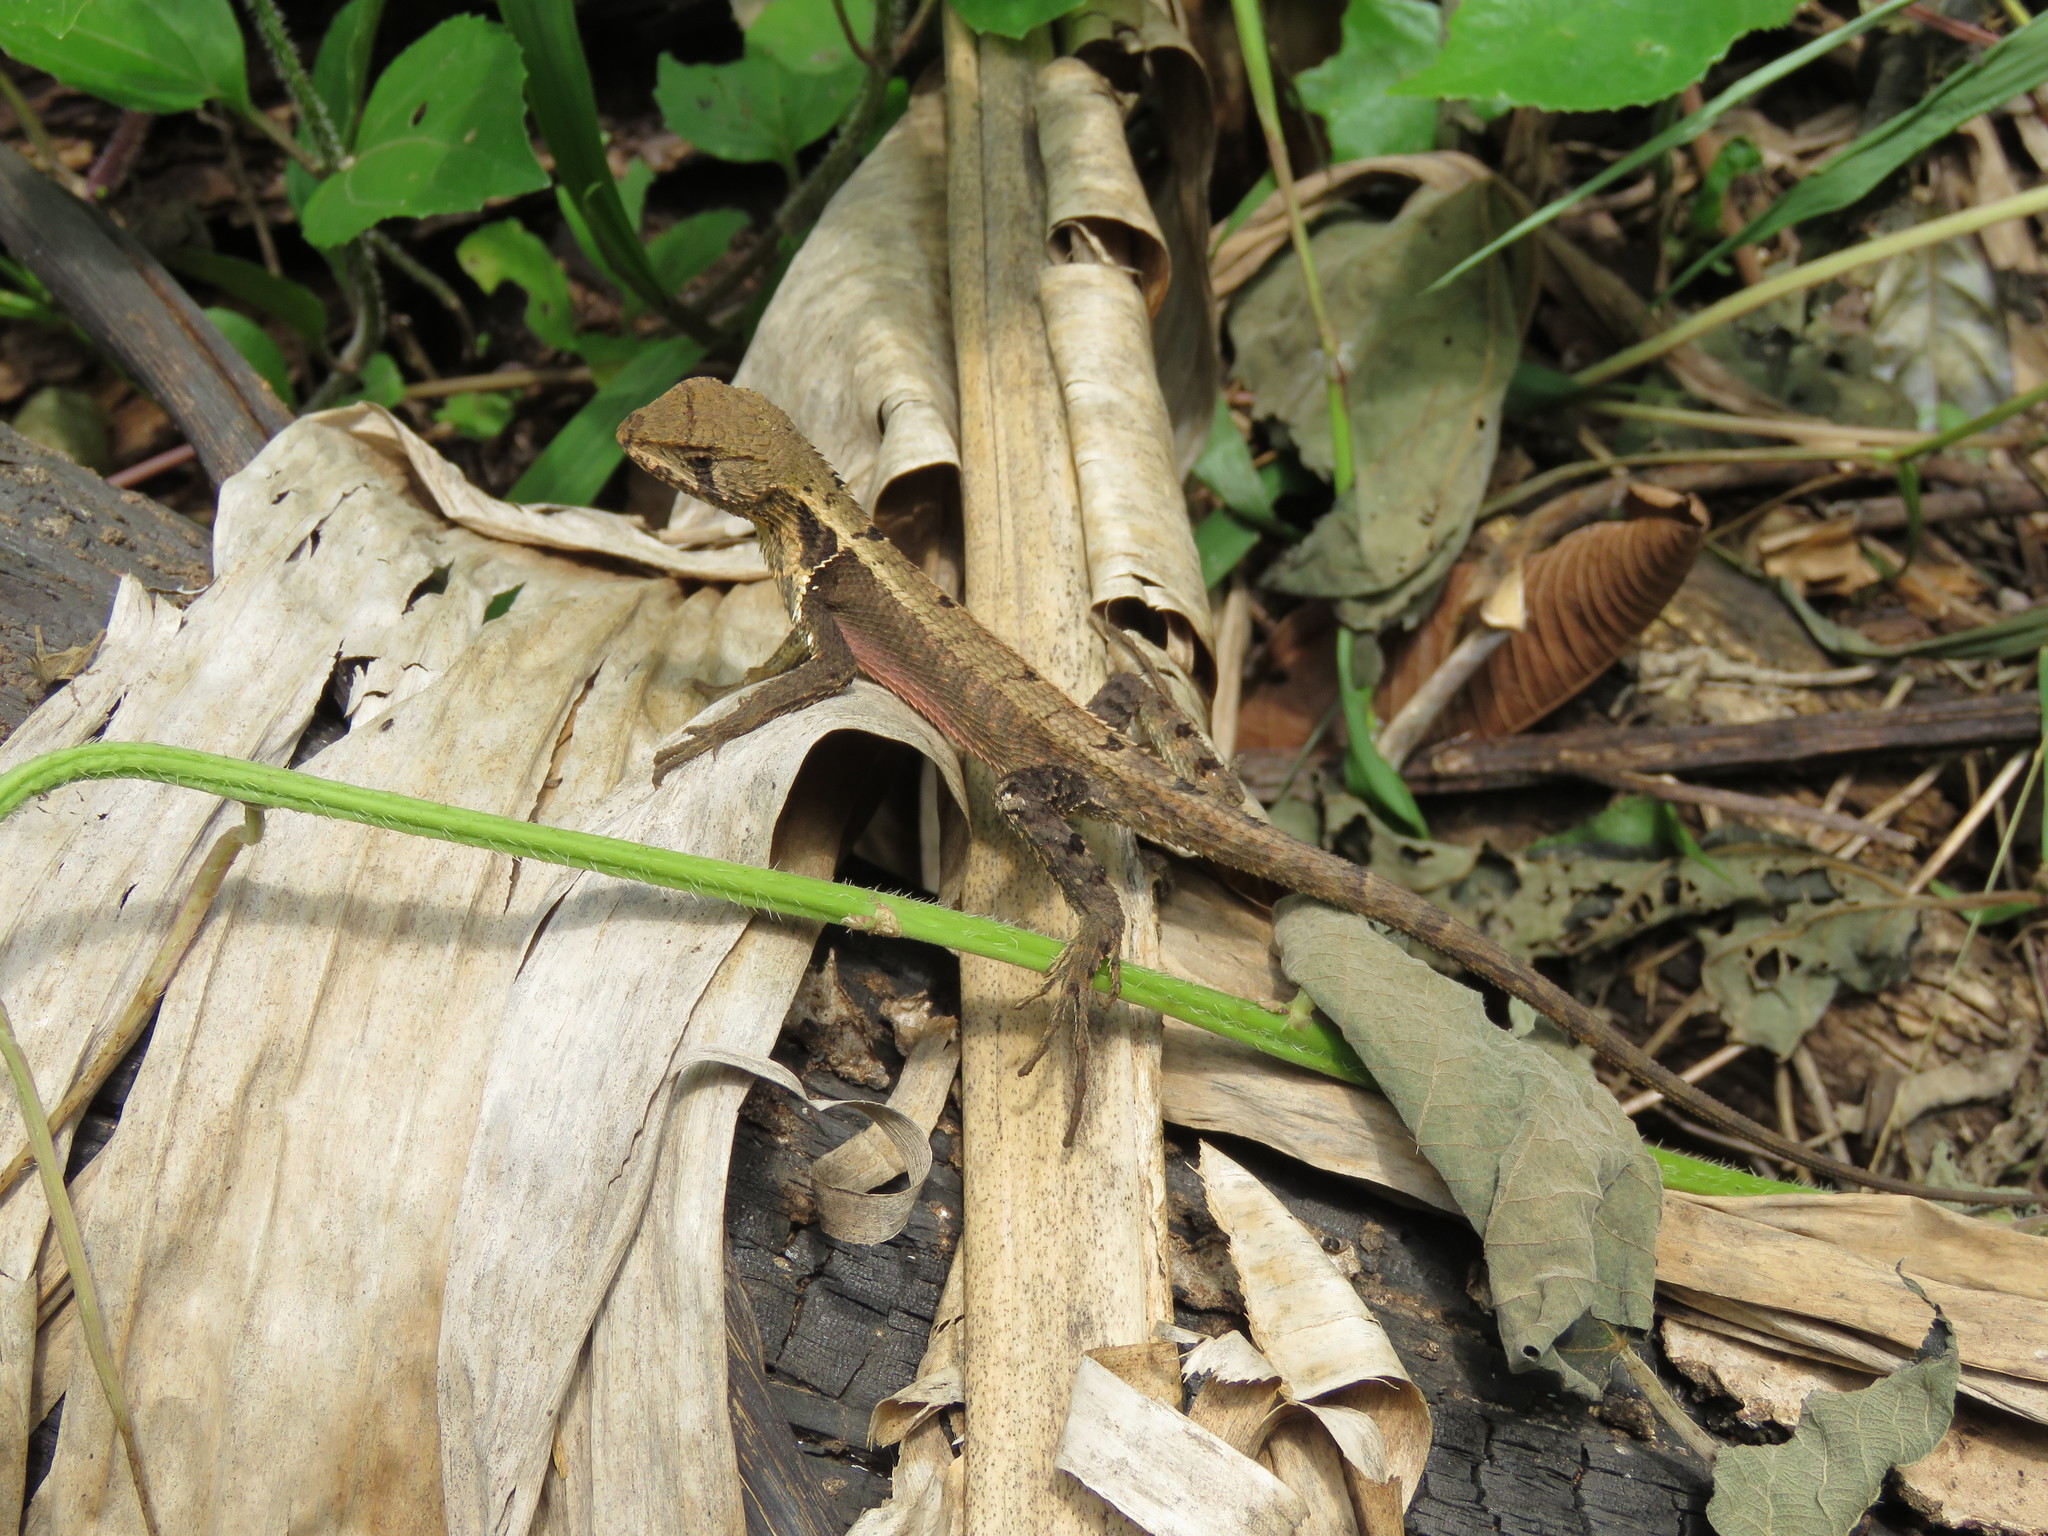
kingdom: Animalia
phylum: Chordata
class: Squamata
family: Tropiduridae
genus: Stenocercus
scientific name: Stenocercus prionotus
